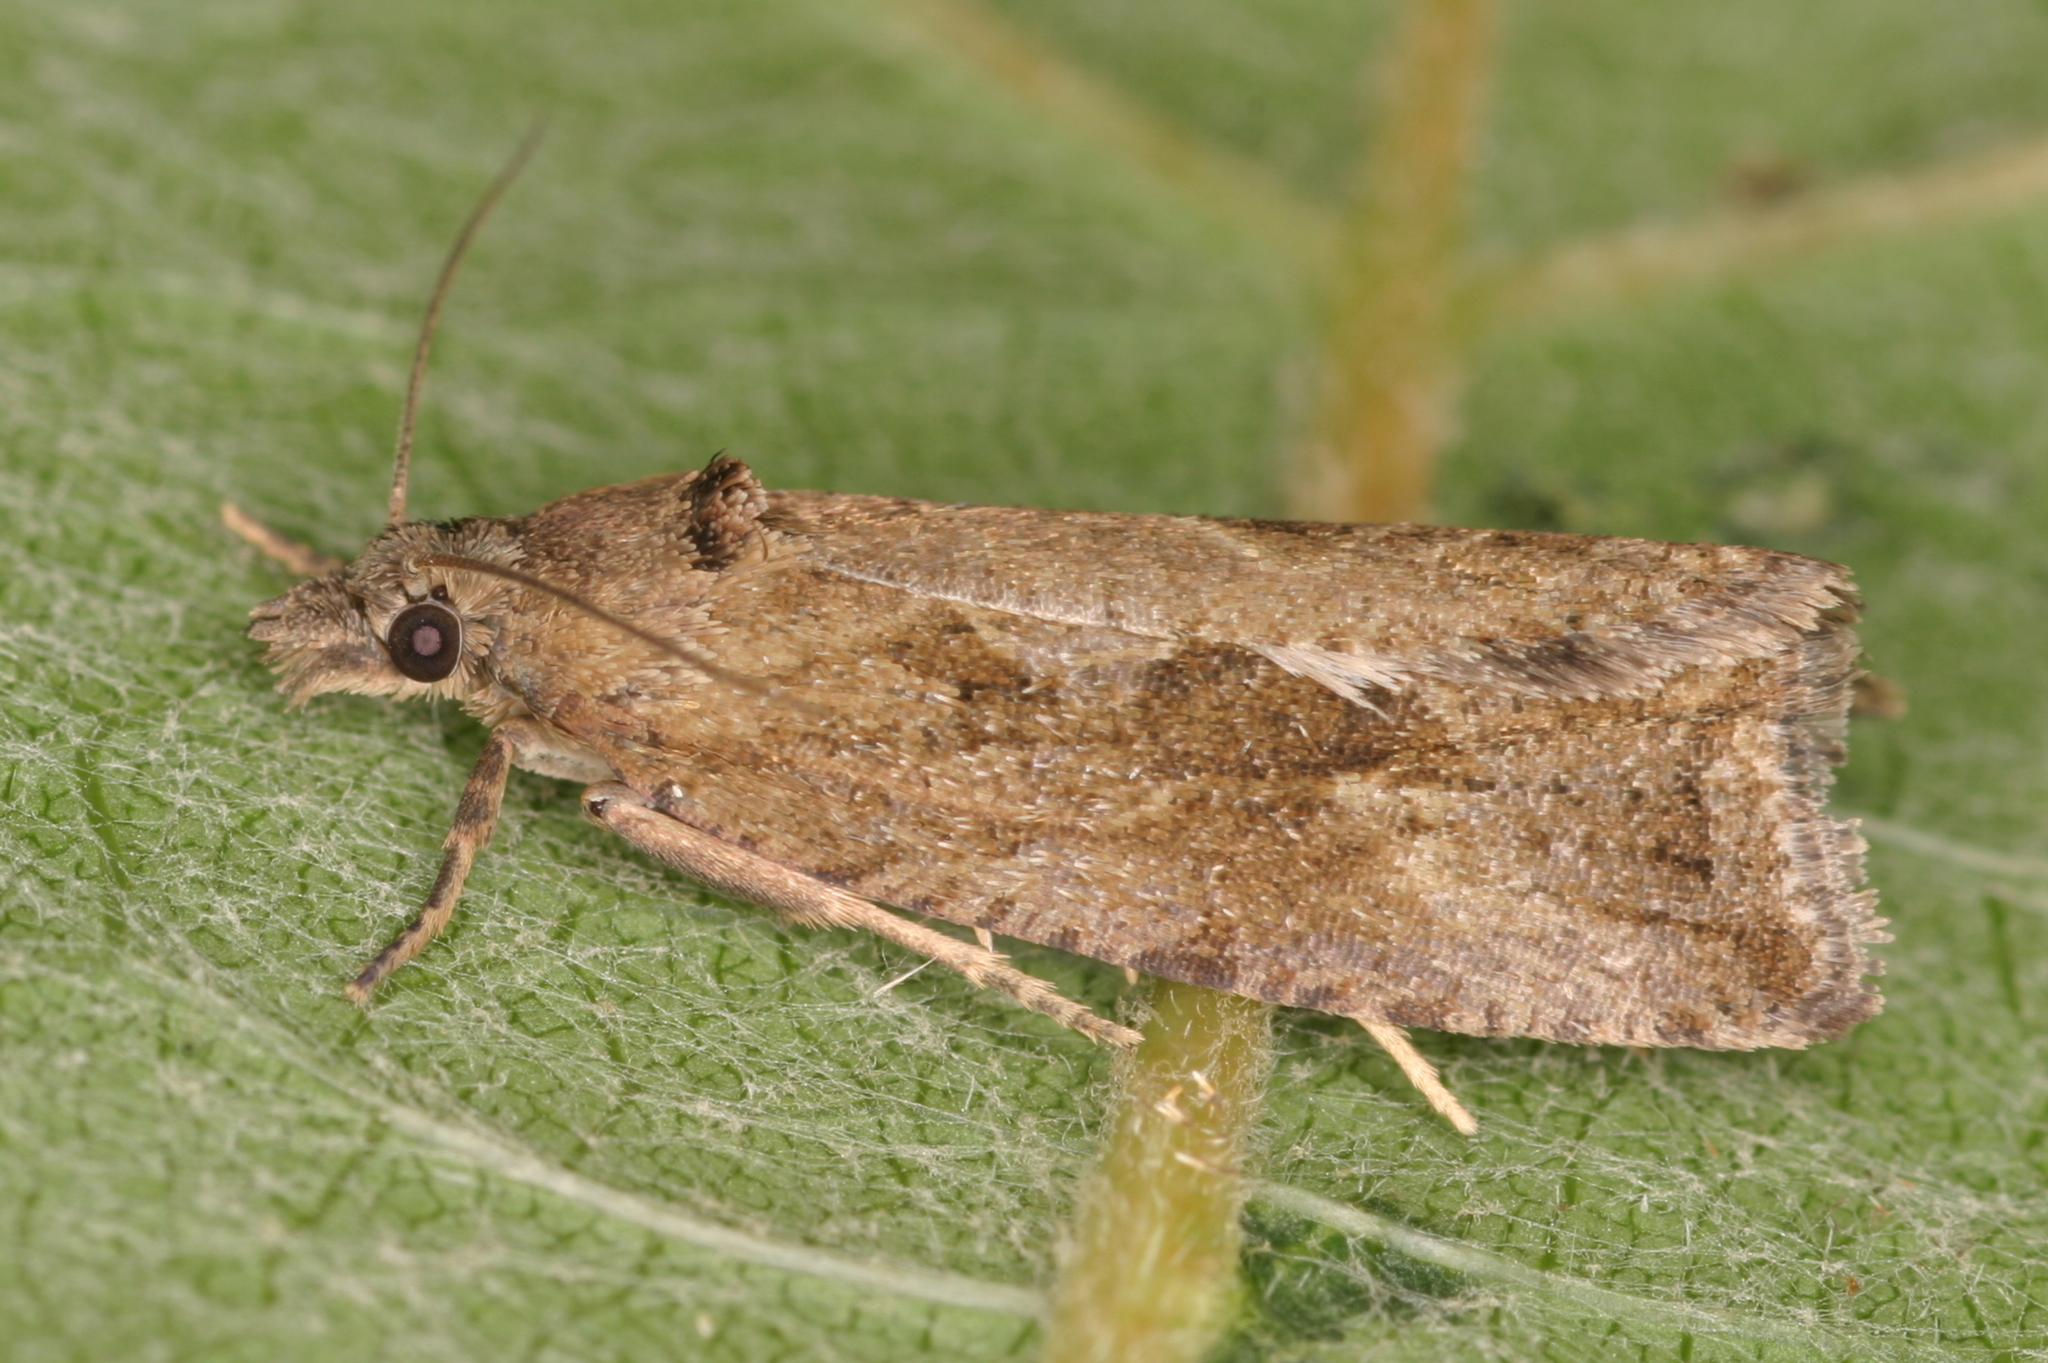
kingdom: Animalia
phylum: Arthropoda
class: Insecta
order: Lepidoptera
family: Tortricidae
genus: Endothenia
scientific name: Endothenia quadrimaculana
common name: Tortricid moth
